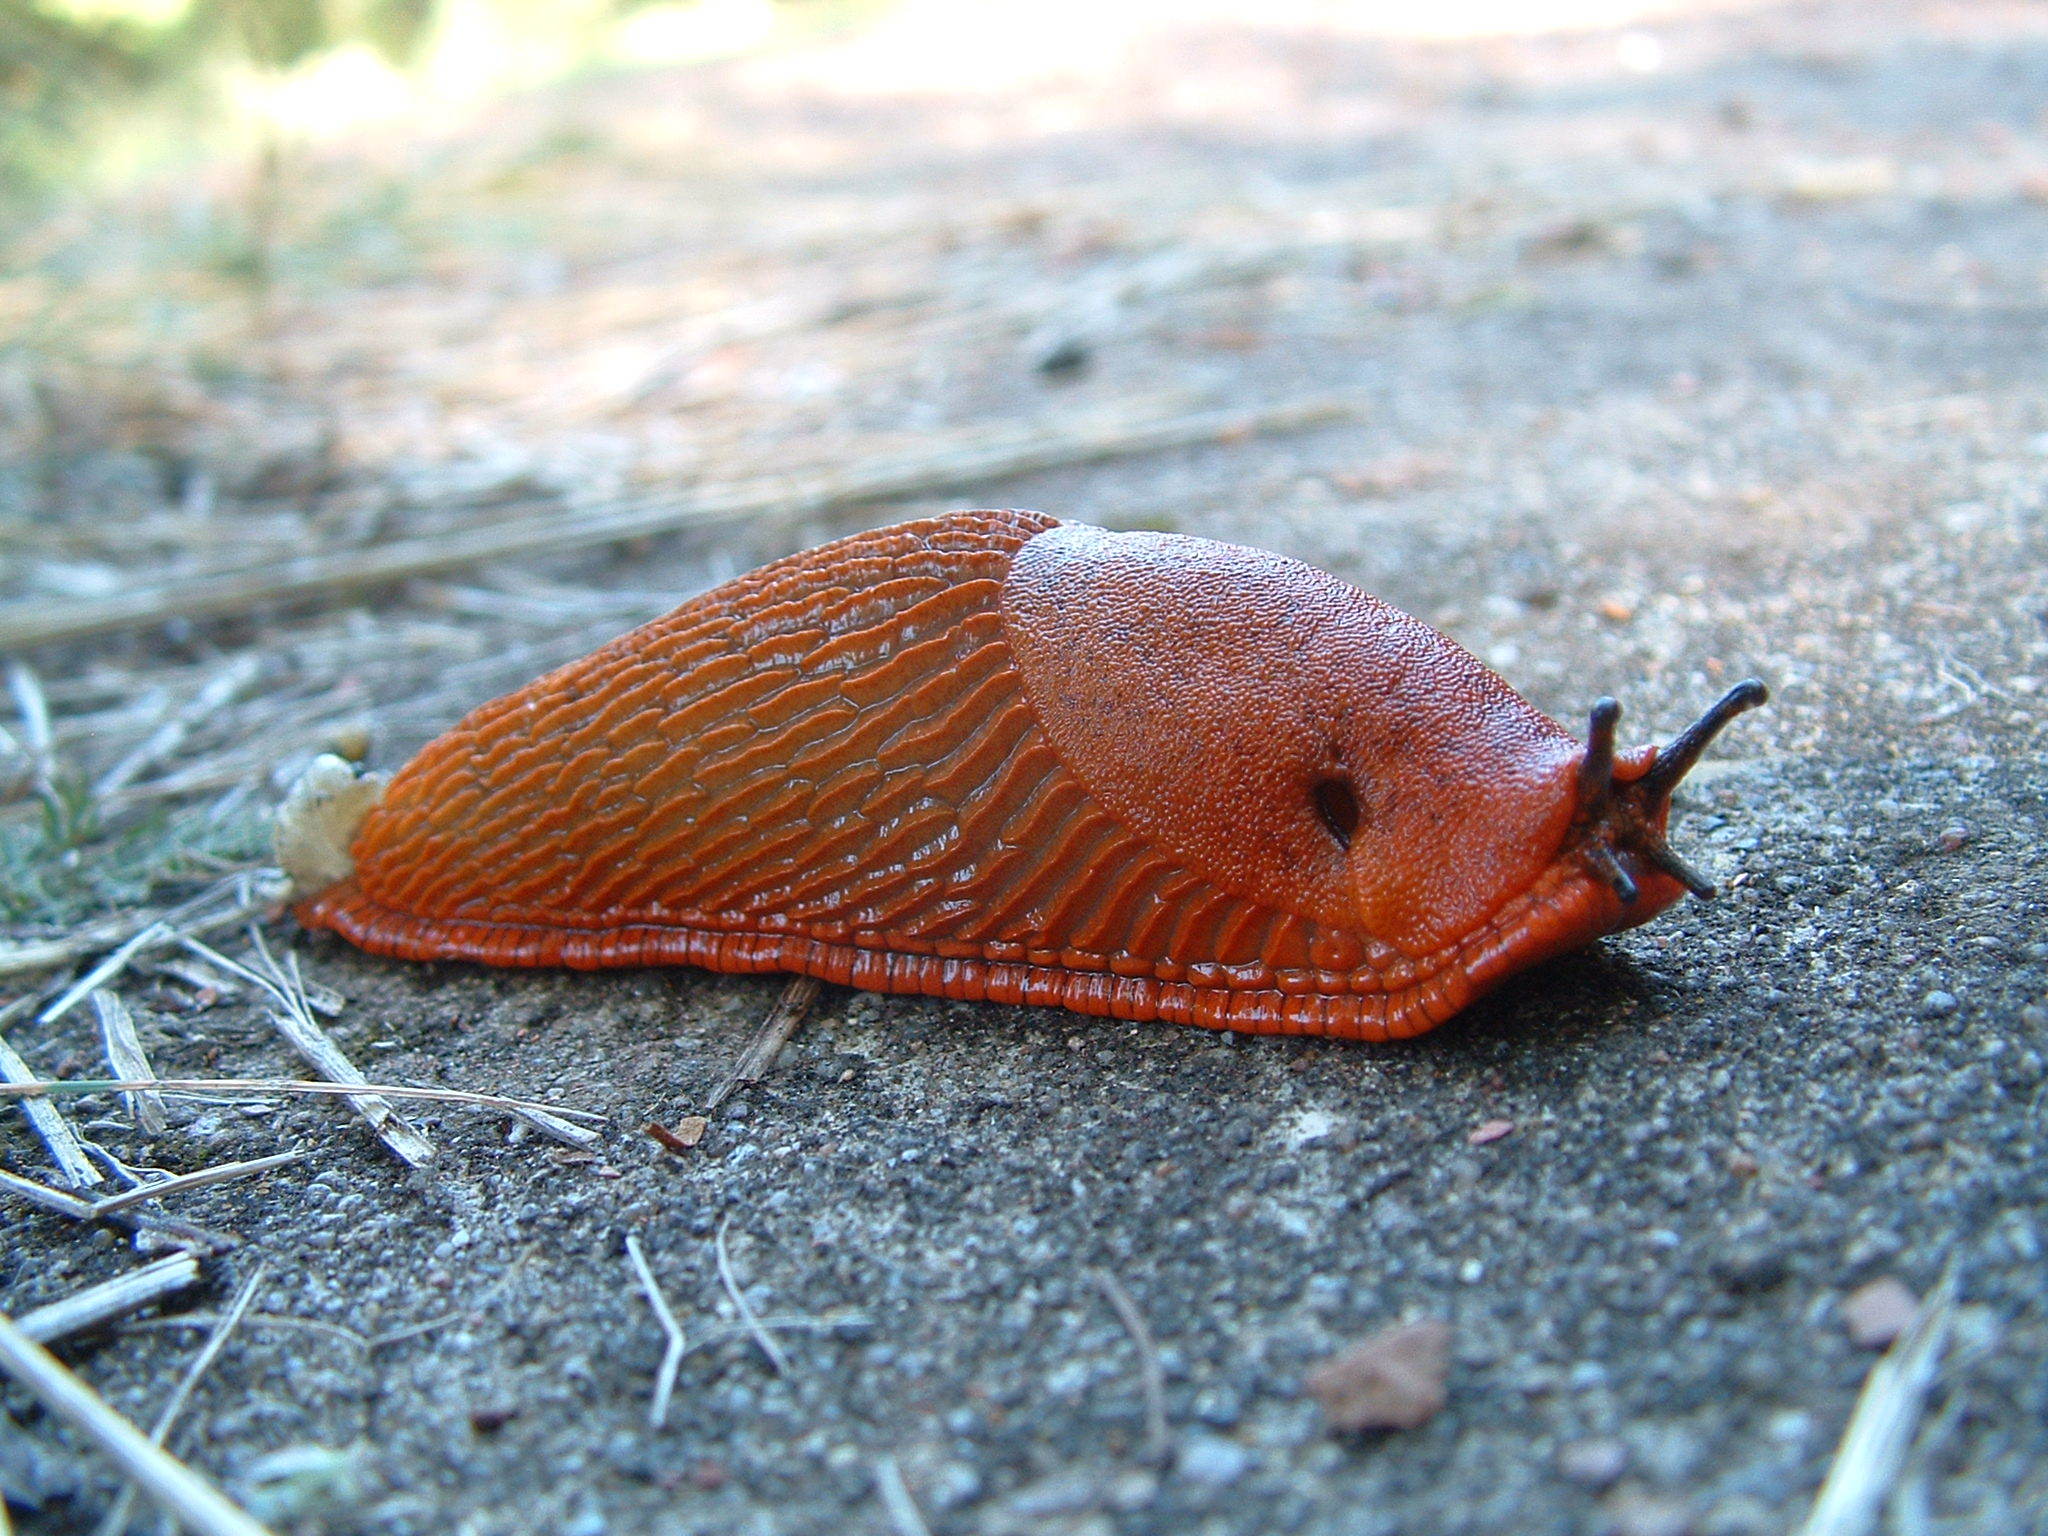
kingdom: Animalia
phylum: Mollusca
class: Gastropoda
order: Stylommatophora
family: Arionidae
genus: Arion
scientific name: Arion rufus
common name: Chocolate arion
